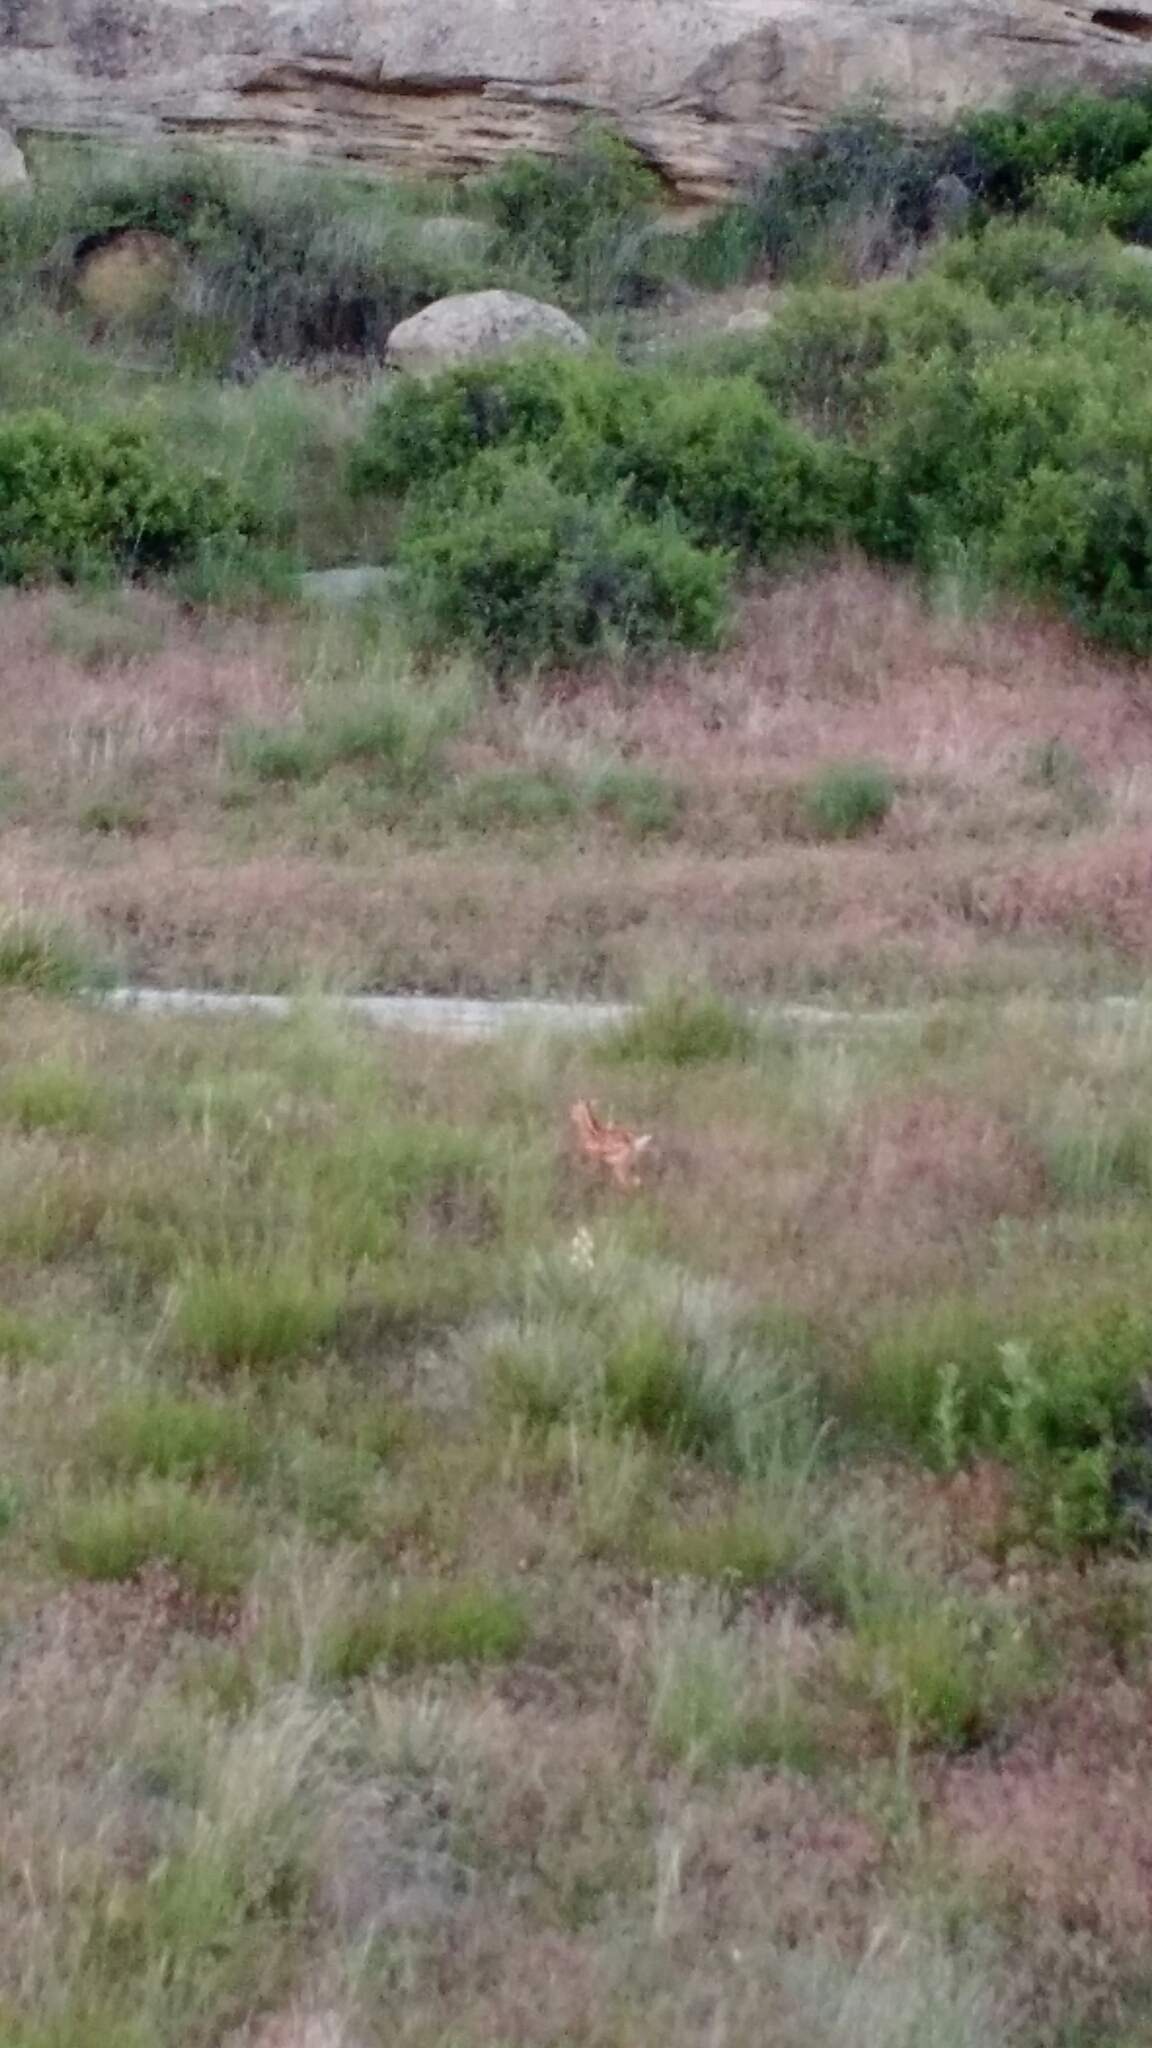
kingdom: Animalia
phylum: Chordata
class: Mammalia
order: Artiodactyla
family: Cervidae
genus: Odocoileus
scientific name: Odocoileus virginianus
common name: White-tailed deer
